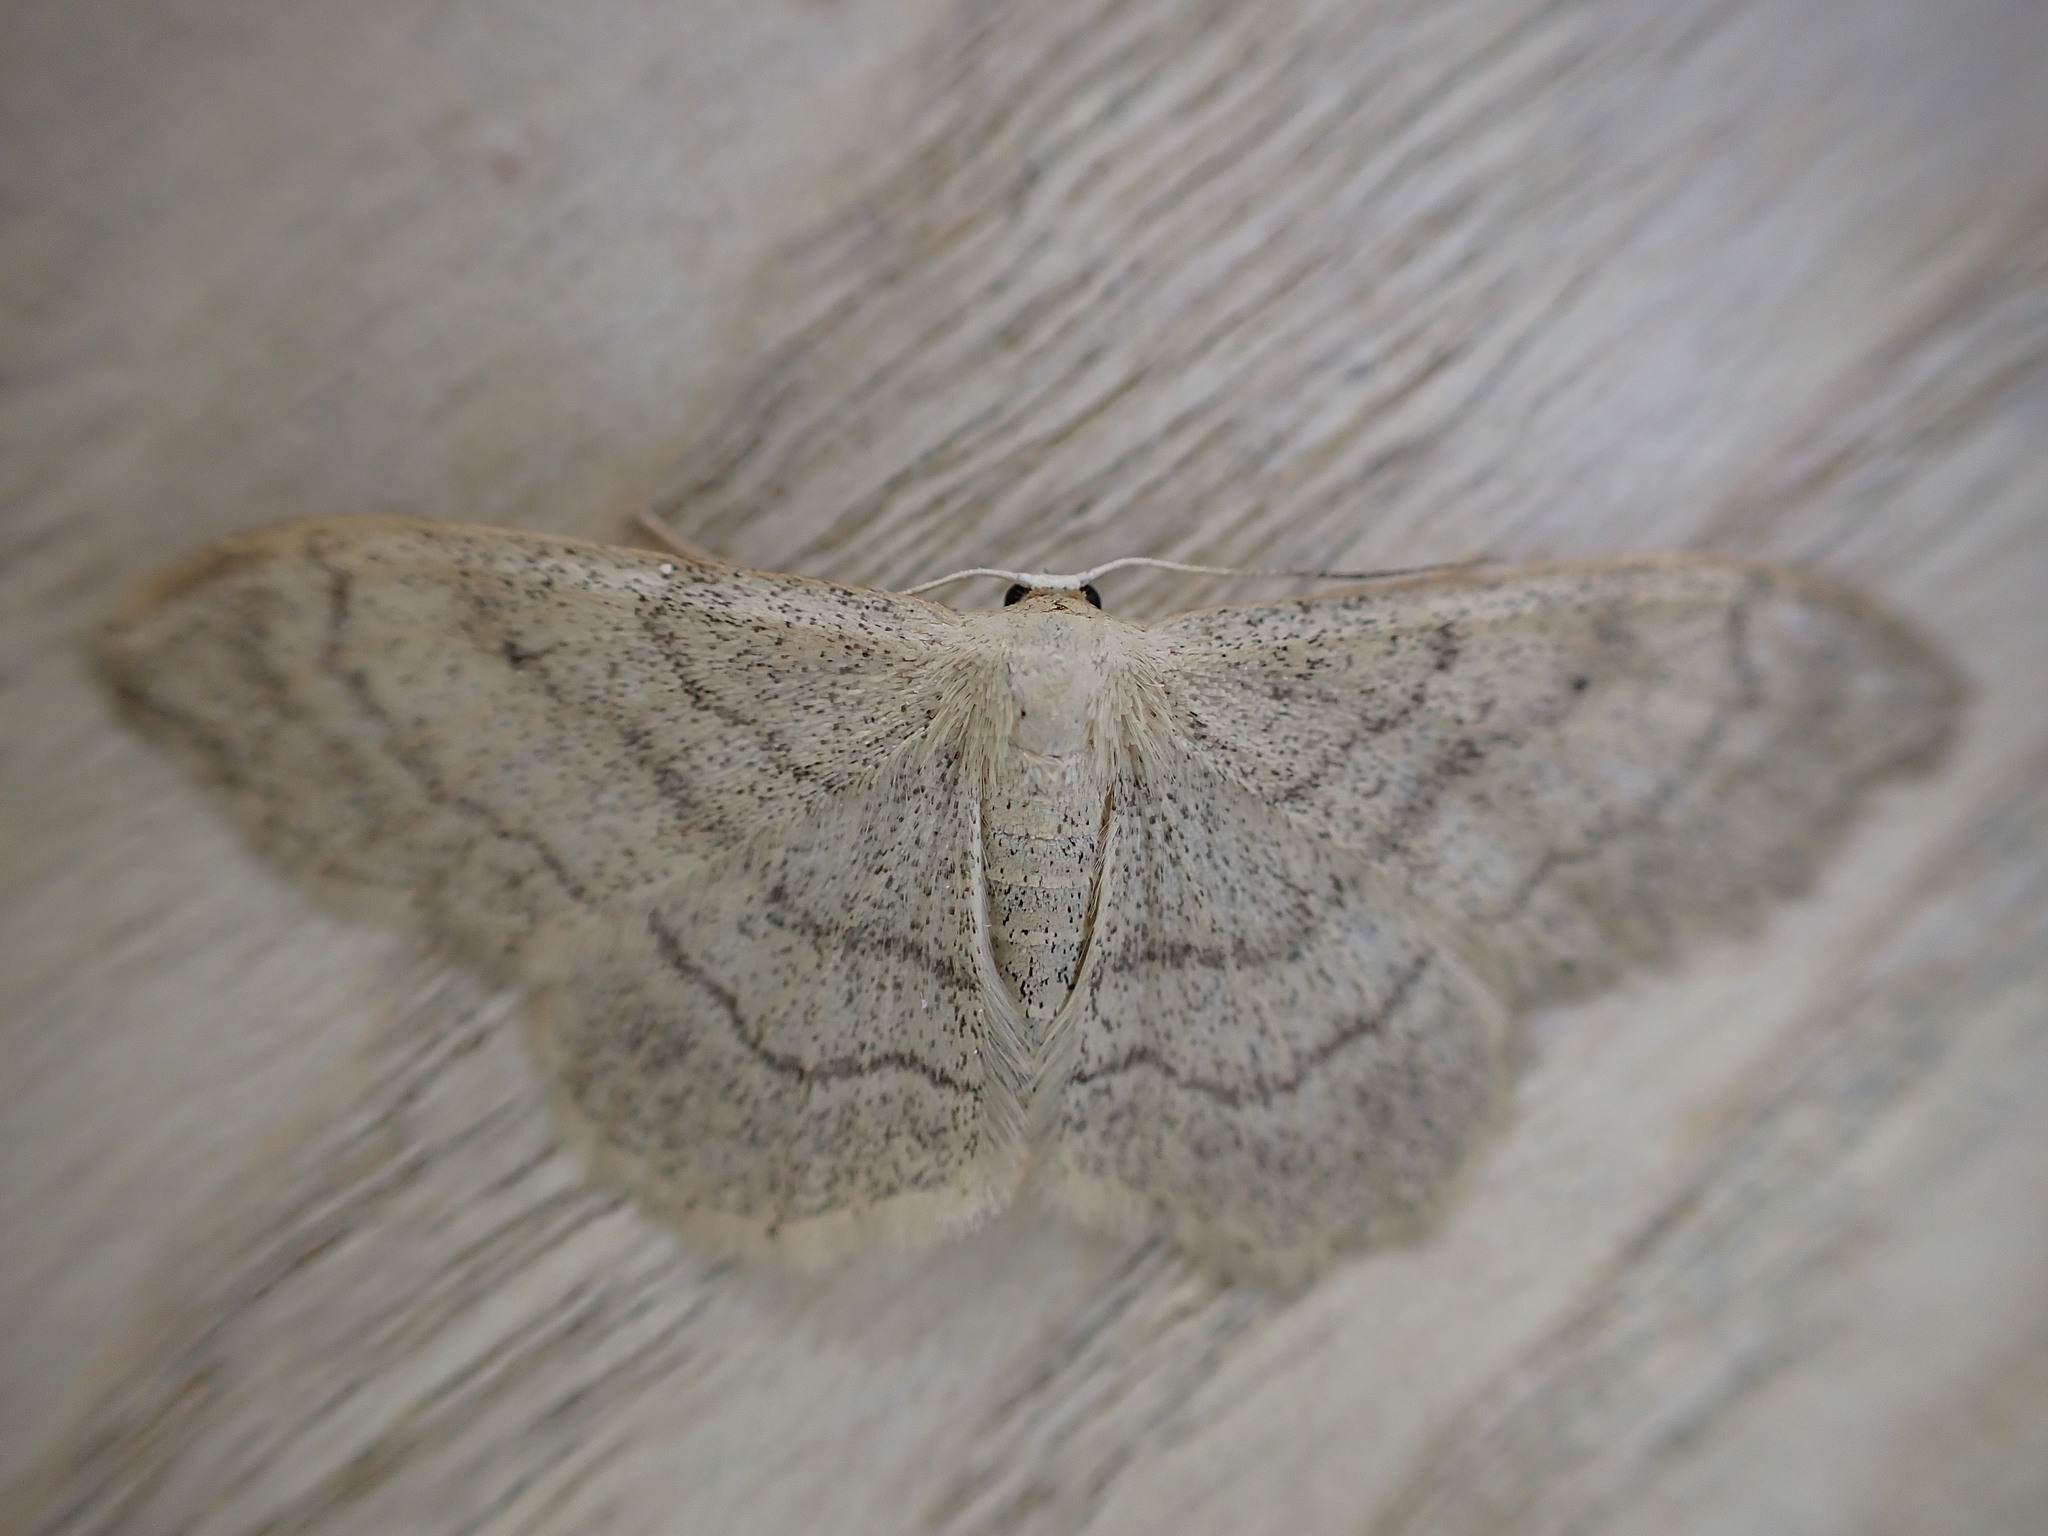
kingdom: Animalia
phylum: Arthropoda
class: Insecta
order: Lepidoptera
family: Geometridae
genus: Idaea
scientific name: Idaea aversata
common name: Riband wave
